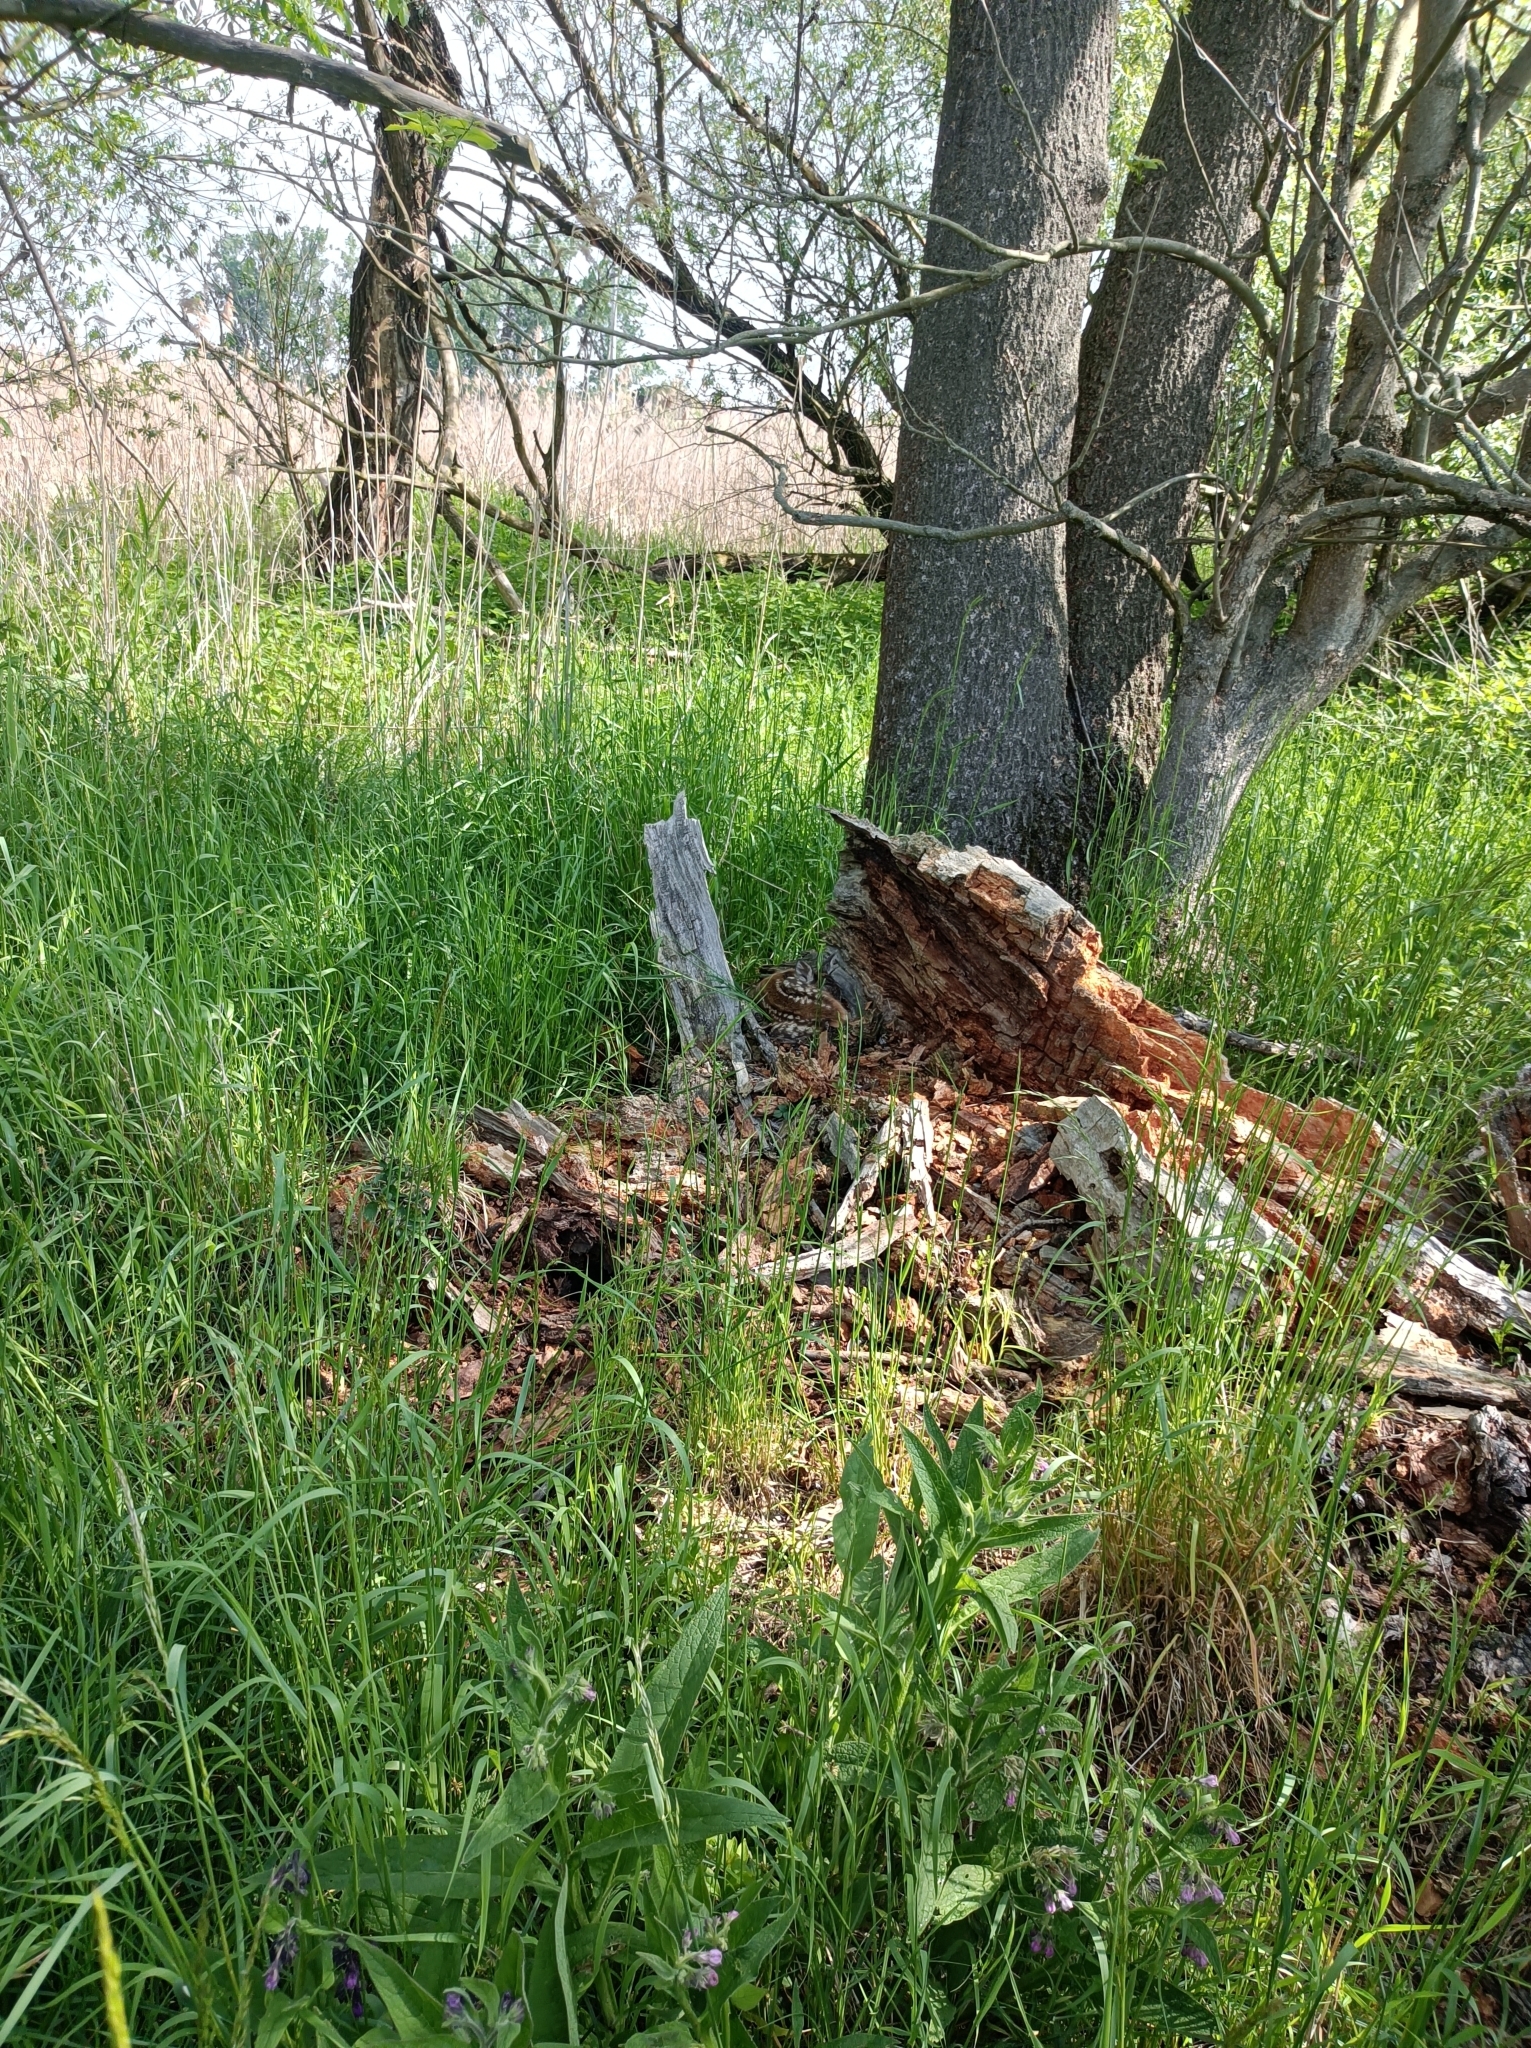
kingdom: Animalia
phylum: Chordata
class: Mammalia
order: Artiodactyla
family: Cervidae
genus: Capreolus
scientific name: Capreolus capreolus
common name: Western roe deer
